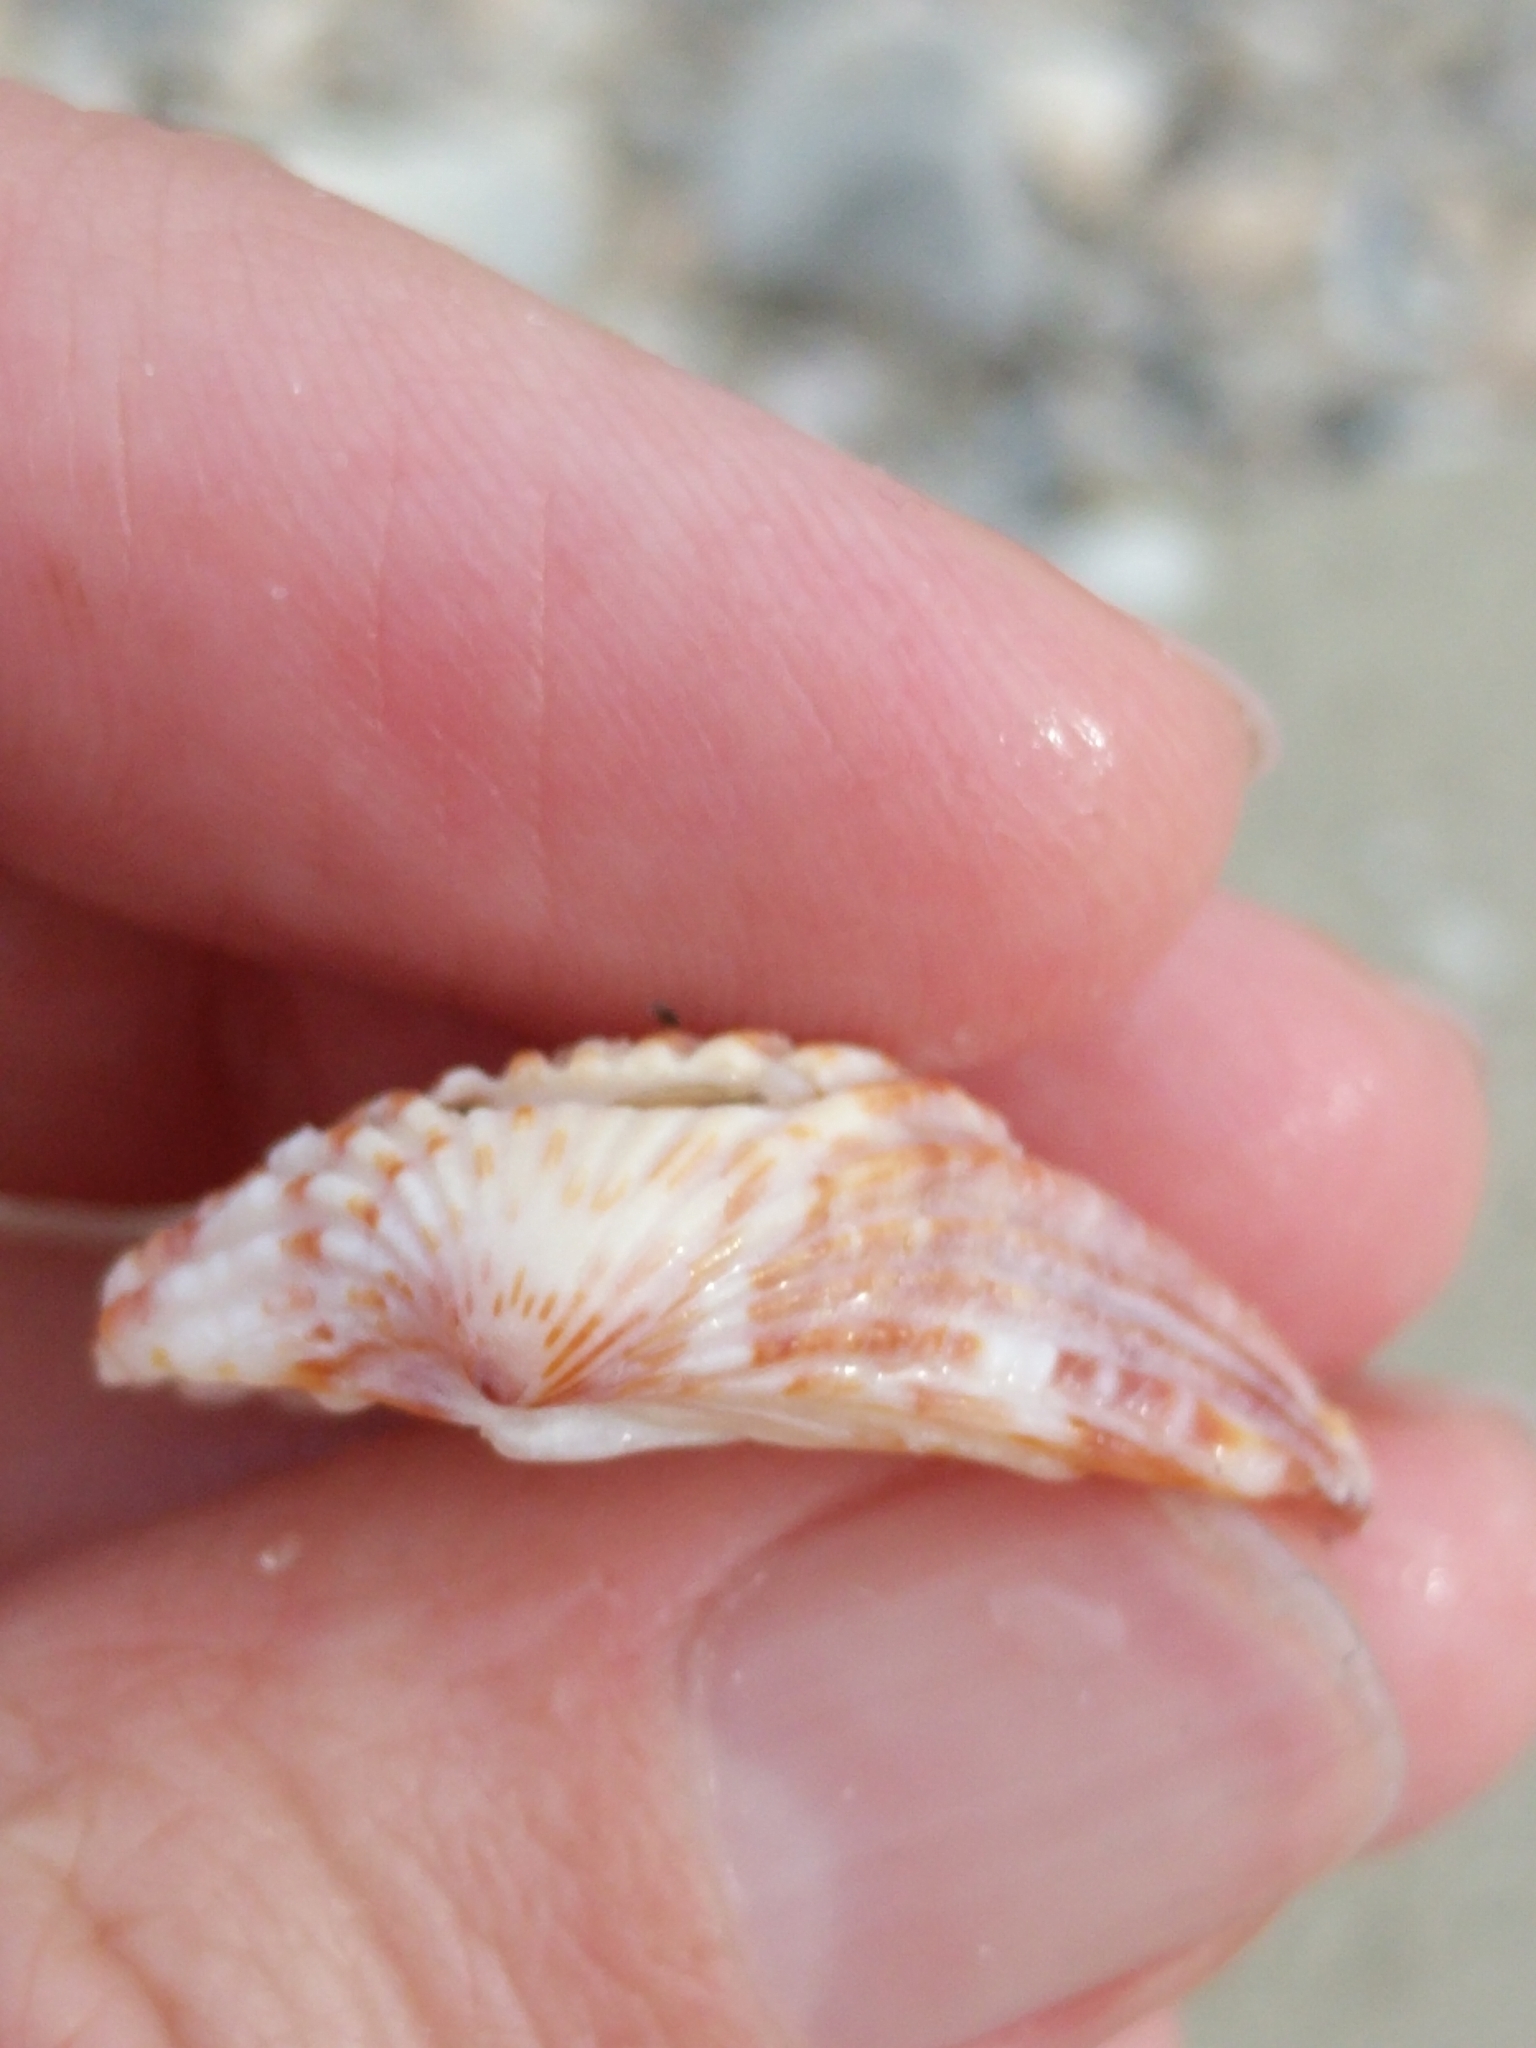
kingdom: Animalia
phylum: Mollusca
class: Bivalvia
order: Carditida
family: Carditidae
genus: Cardites
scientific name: Cardites floridanus
